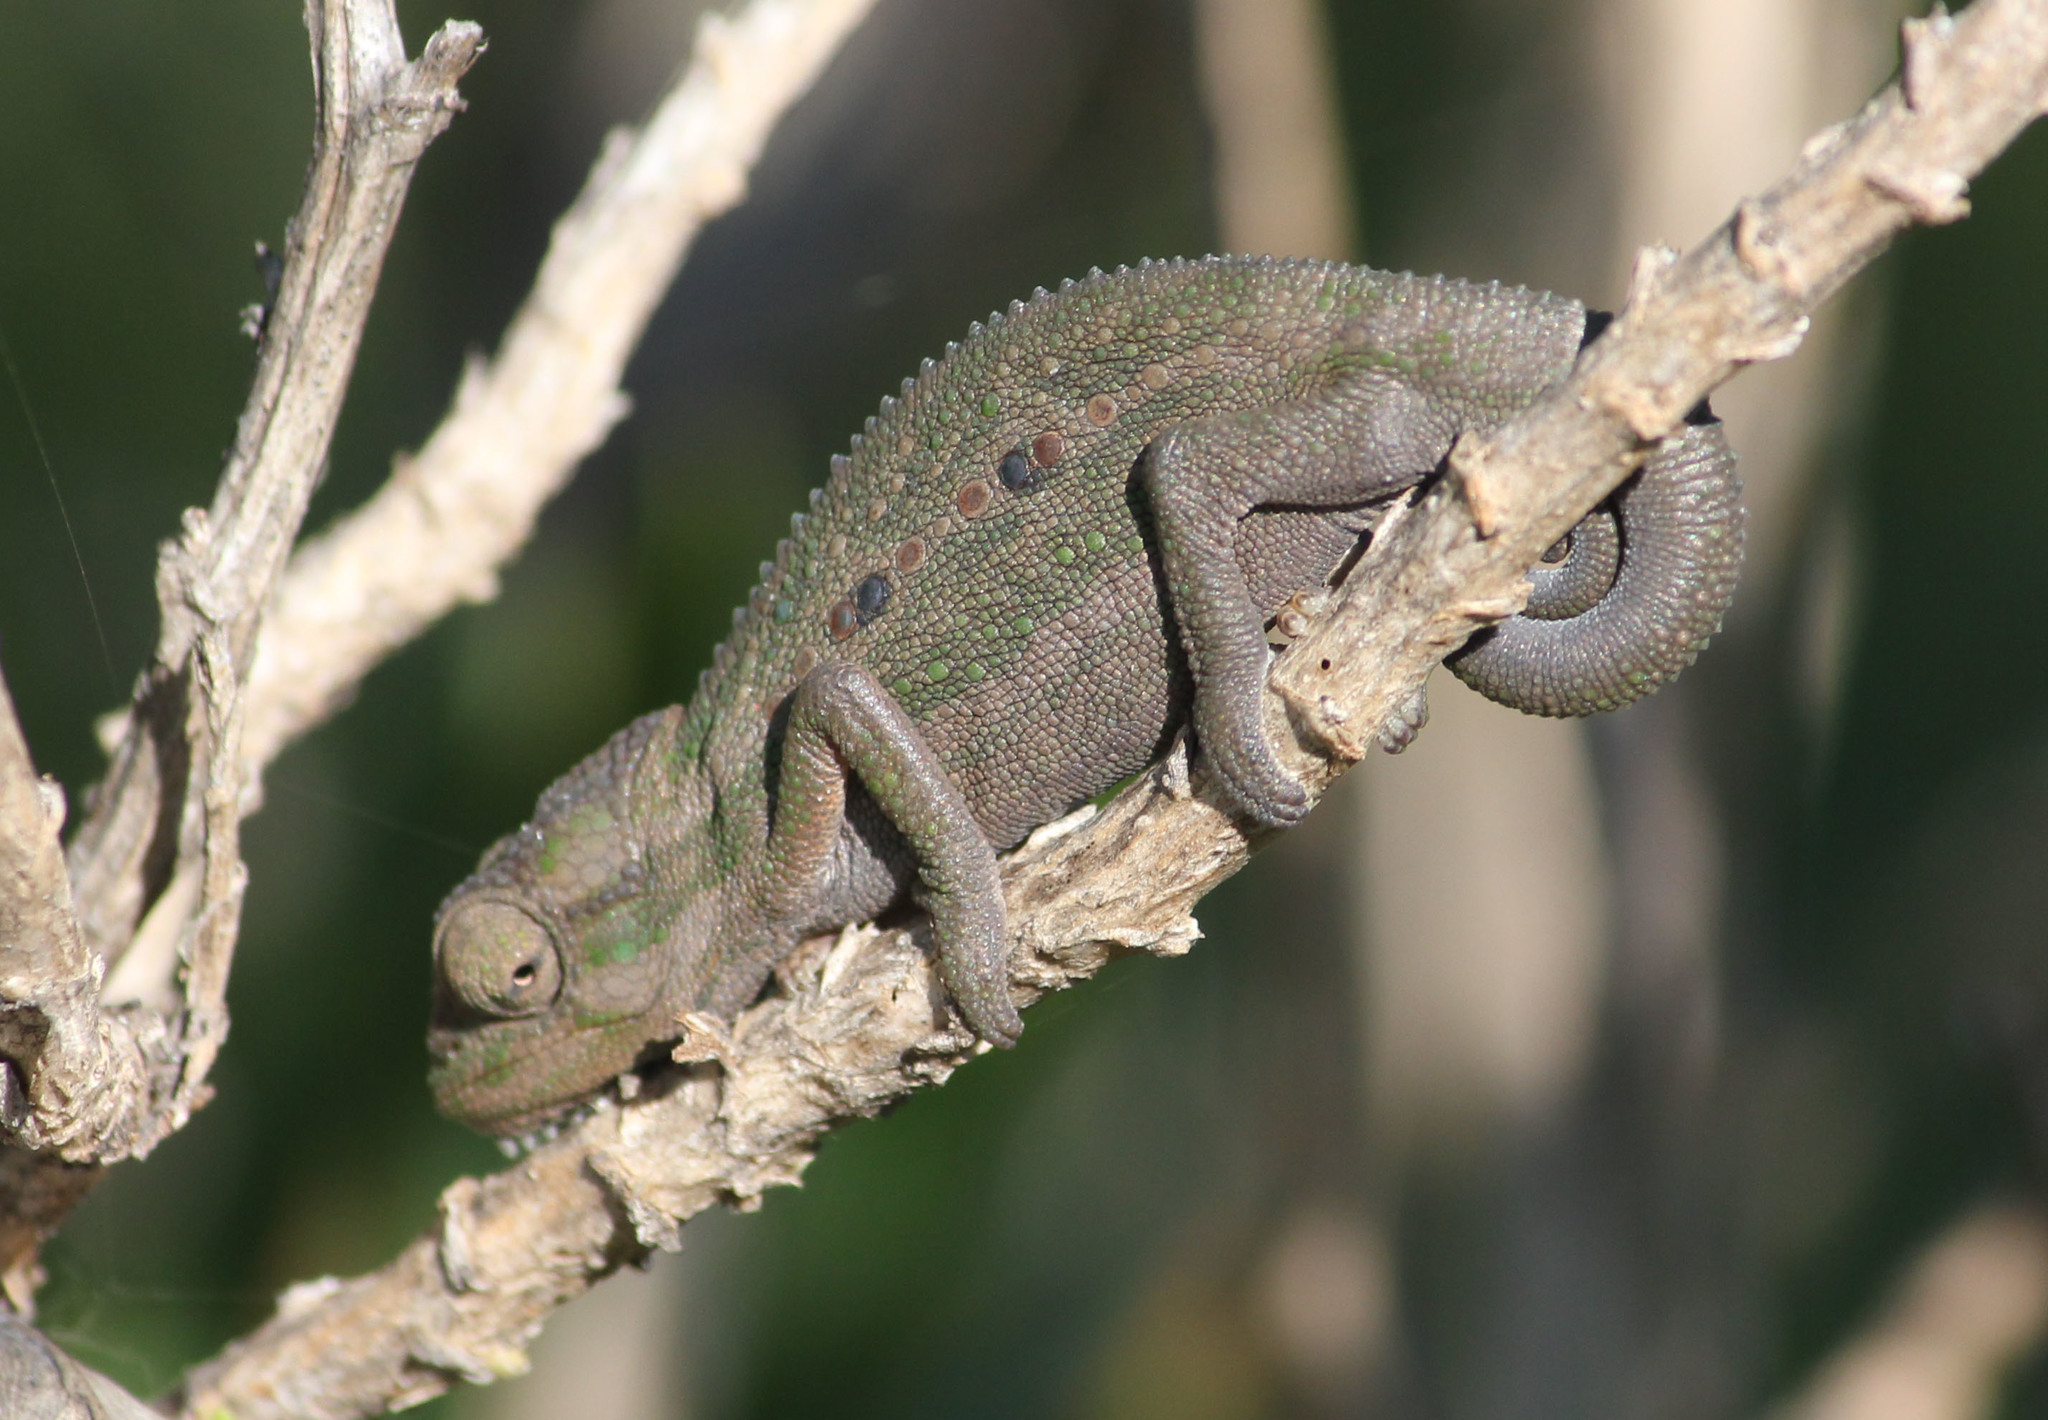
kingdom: Animalia
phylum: Chordata
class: Squamata
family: Chamaeleonidae
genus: Bradypodion
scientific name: Bradypodion pumilum
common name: Cape dwarf chameleon
